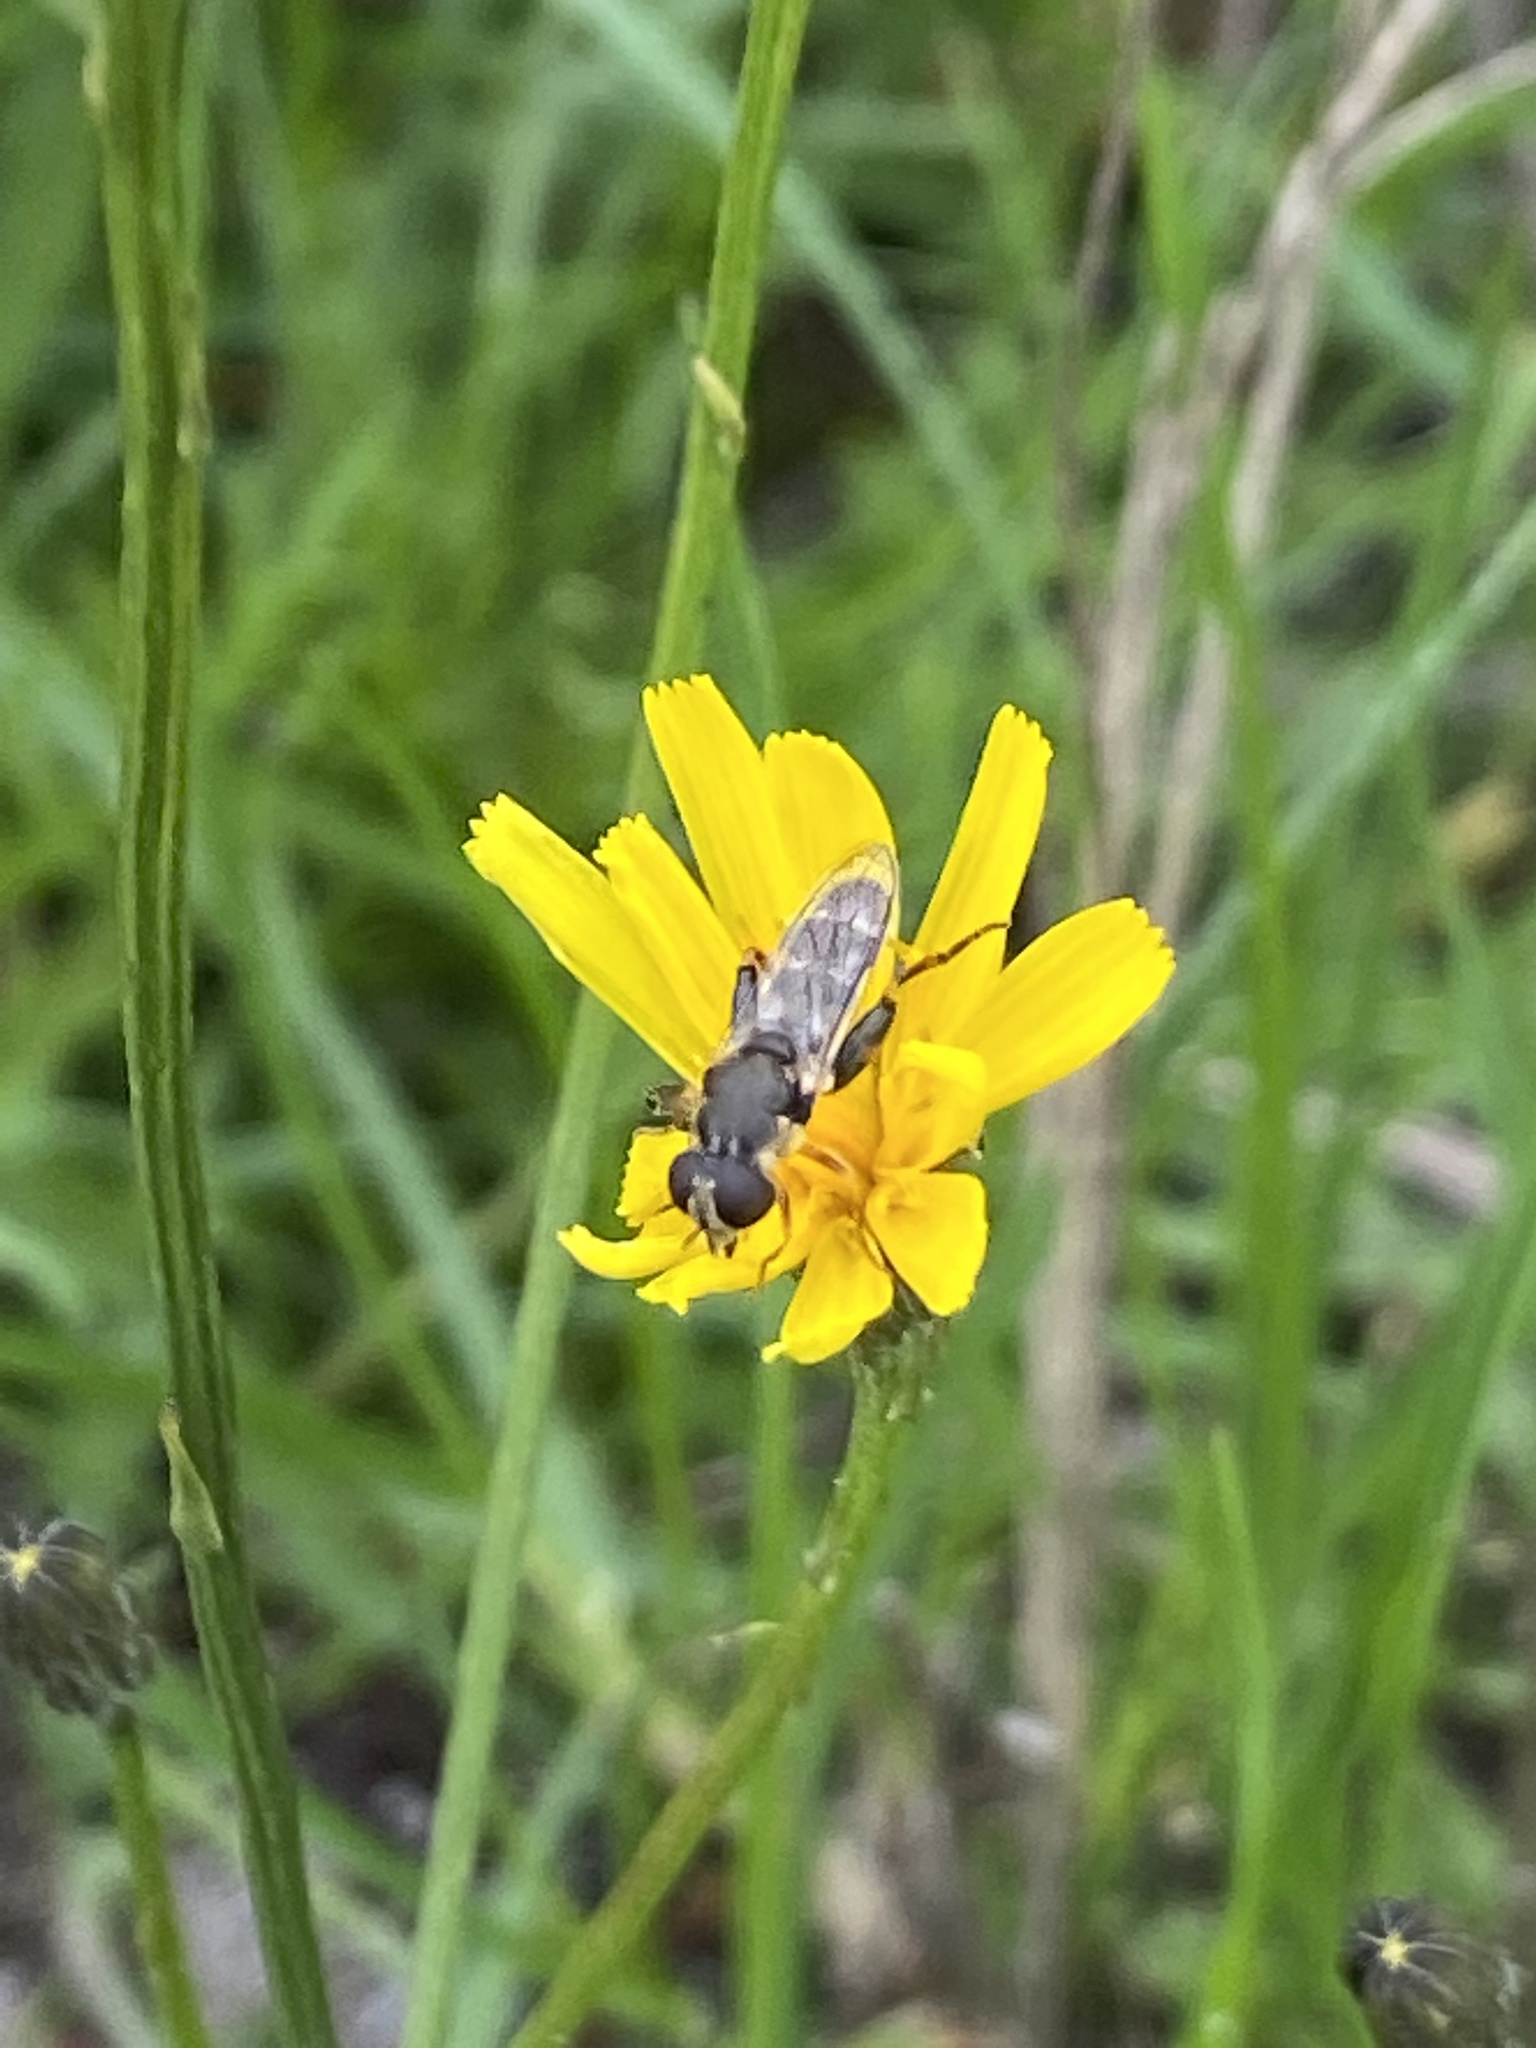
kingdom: Animalia
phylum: Arthropoda
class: Insecta
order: Diptera
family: Syrphidae
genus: Syritta
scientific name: Syritta pipiens
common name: Hover fly
